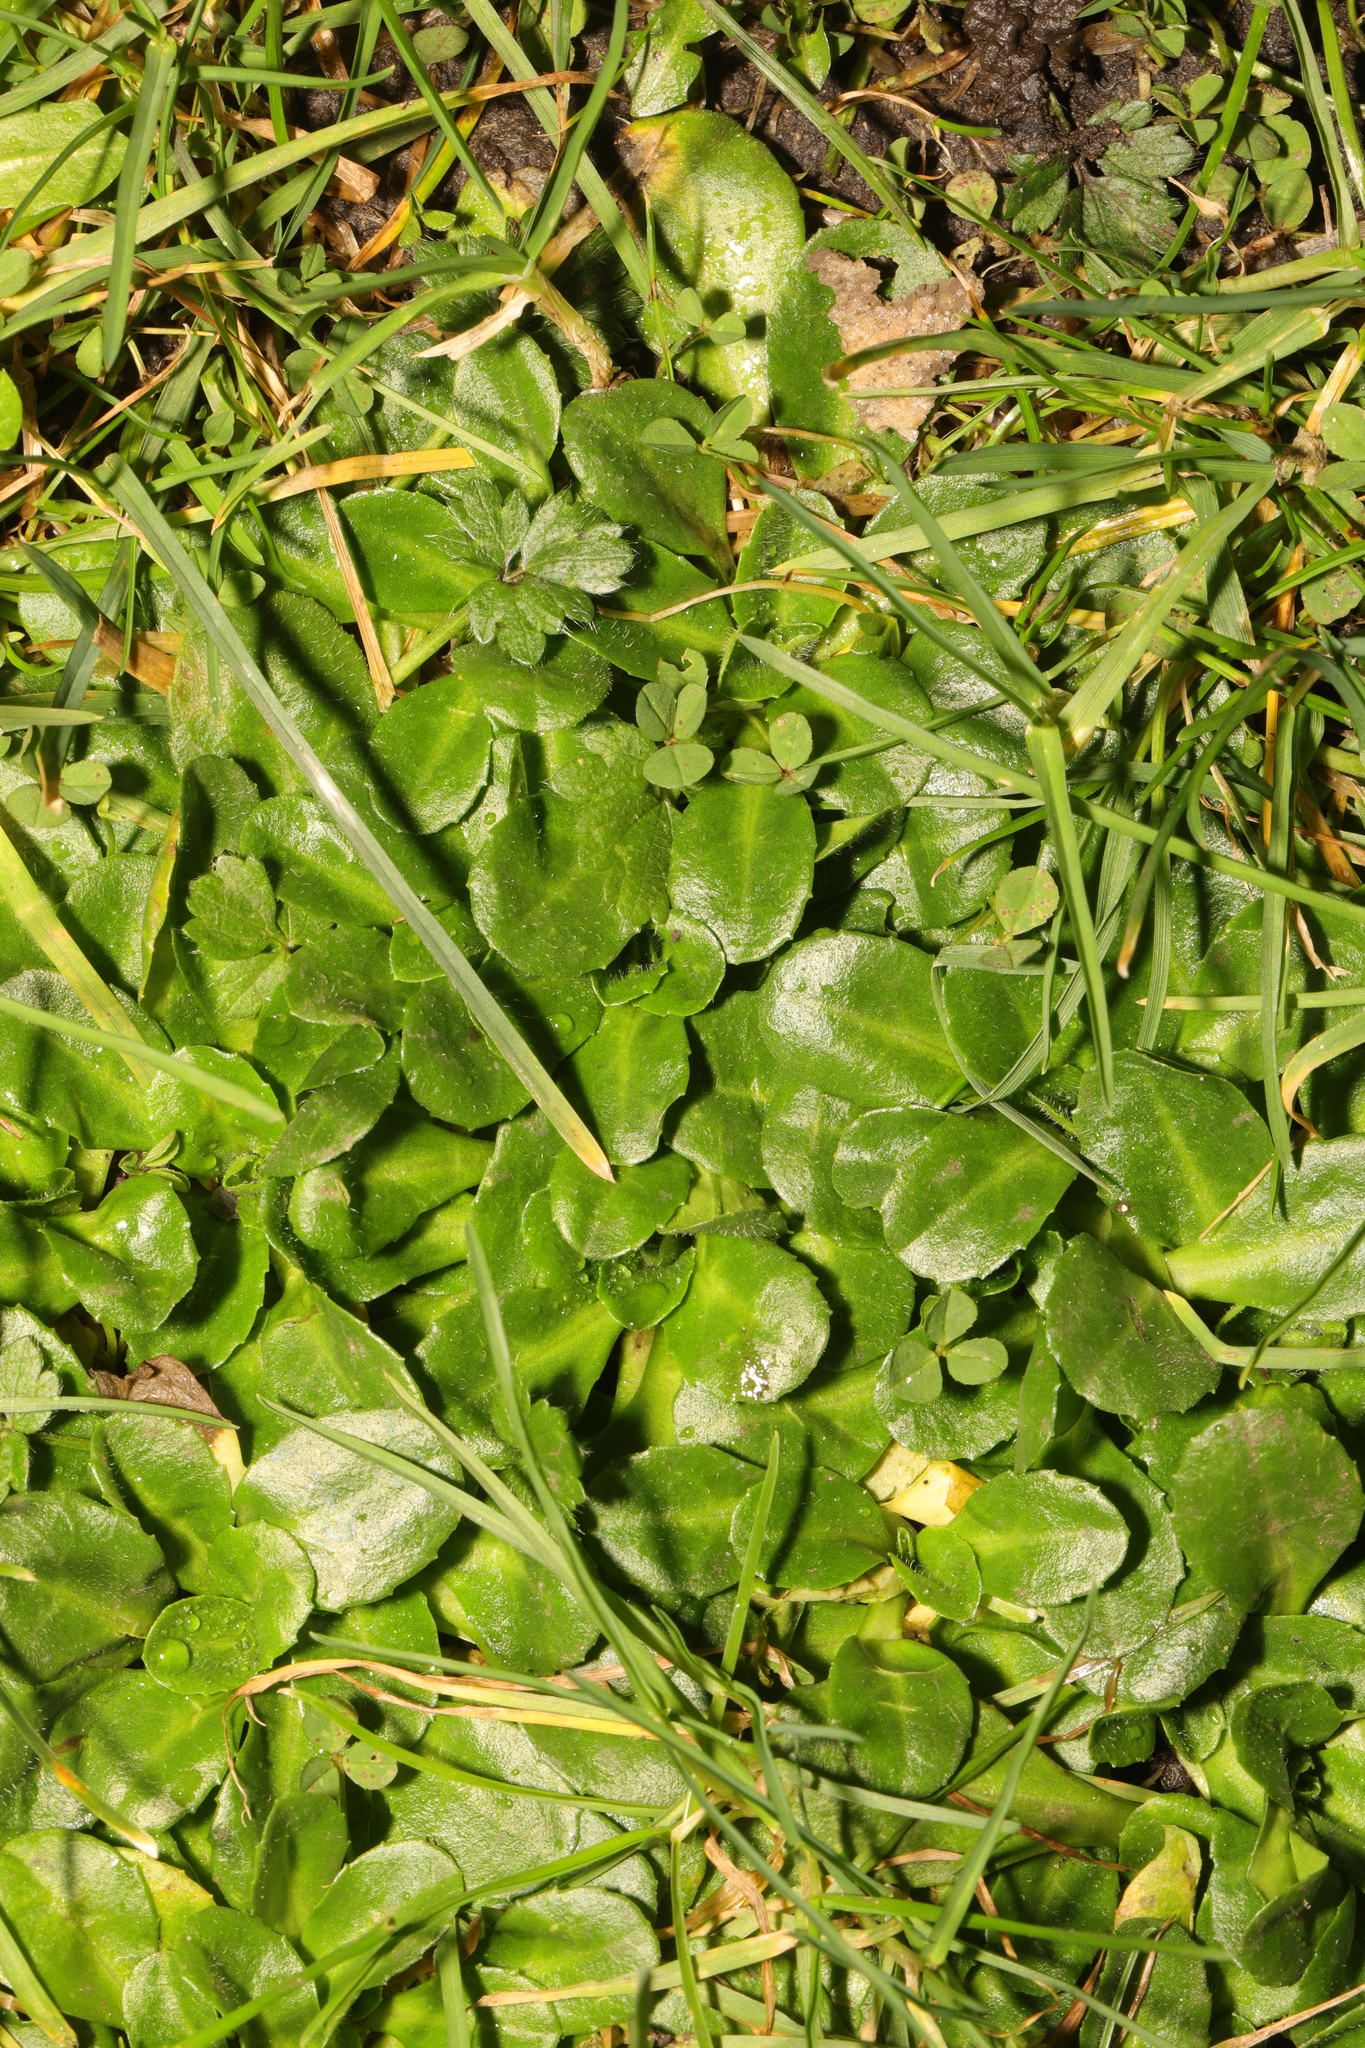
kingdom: Plantae
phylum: Tracheophyta
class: Magnoliopsida
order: Asterales
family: Asteraceae
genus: Bellis
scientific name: Bellis perennis
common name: Lawndaisy
